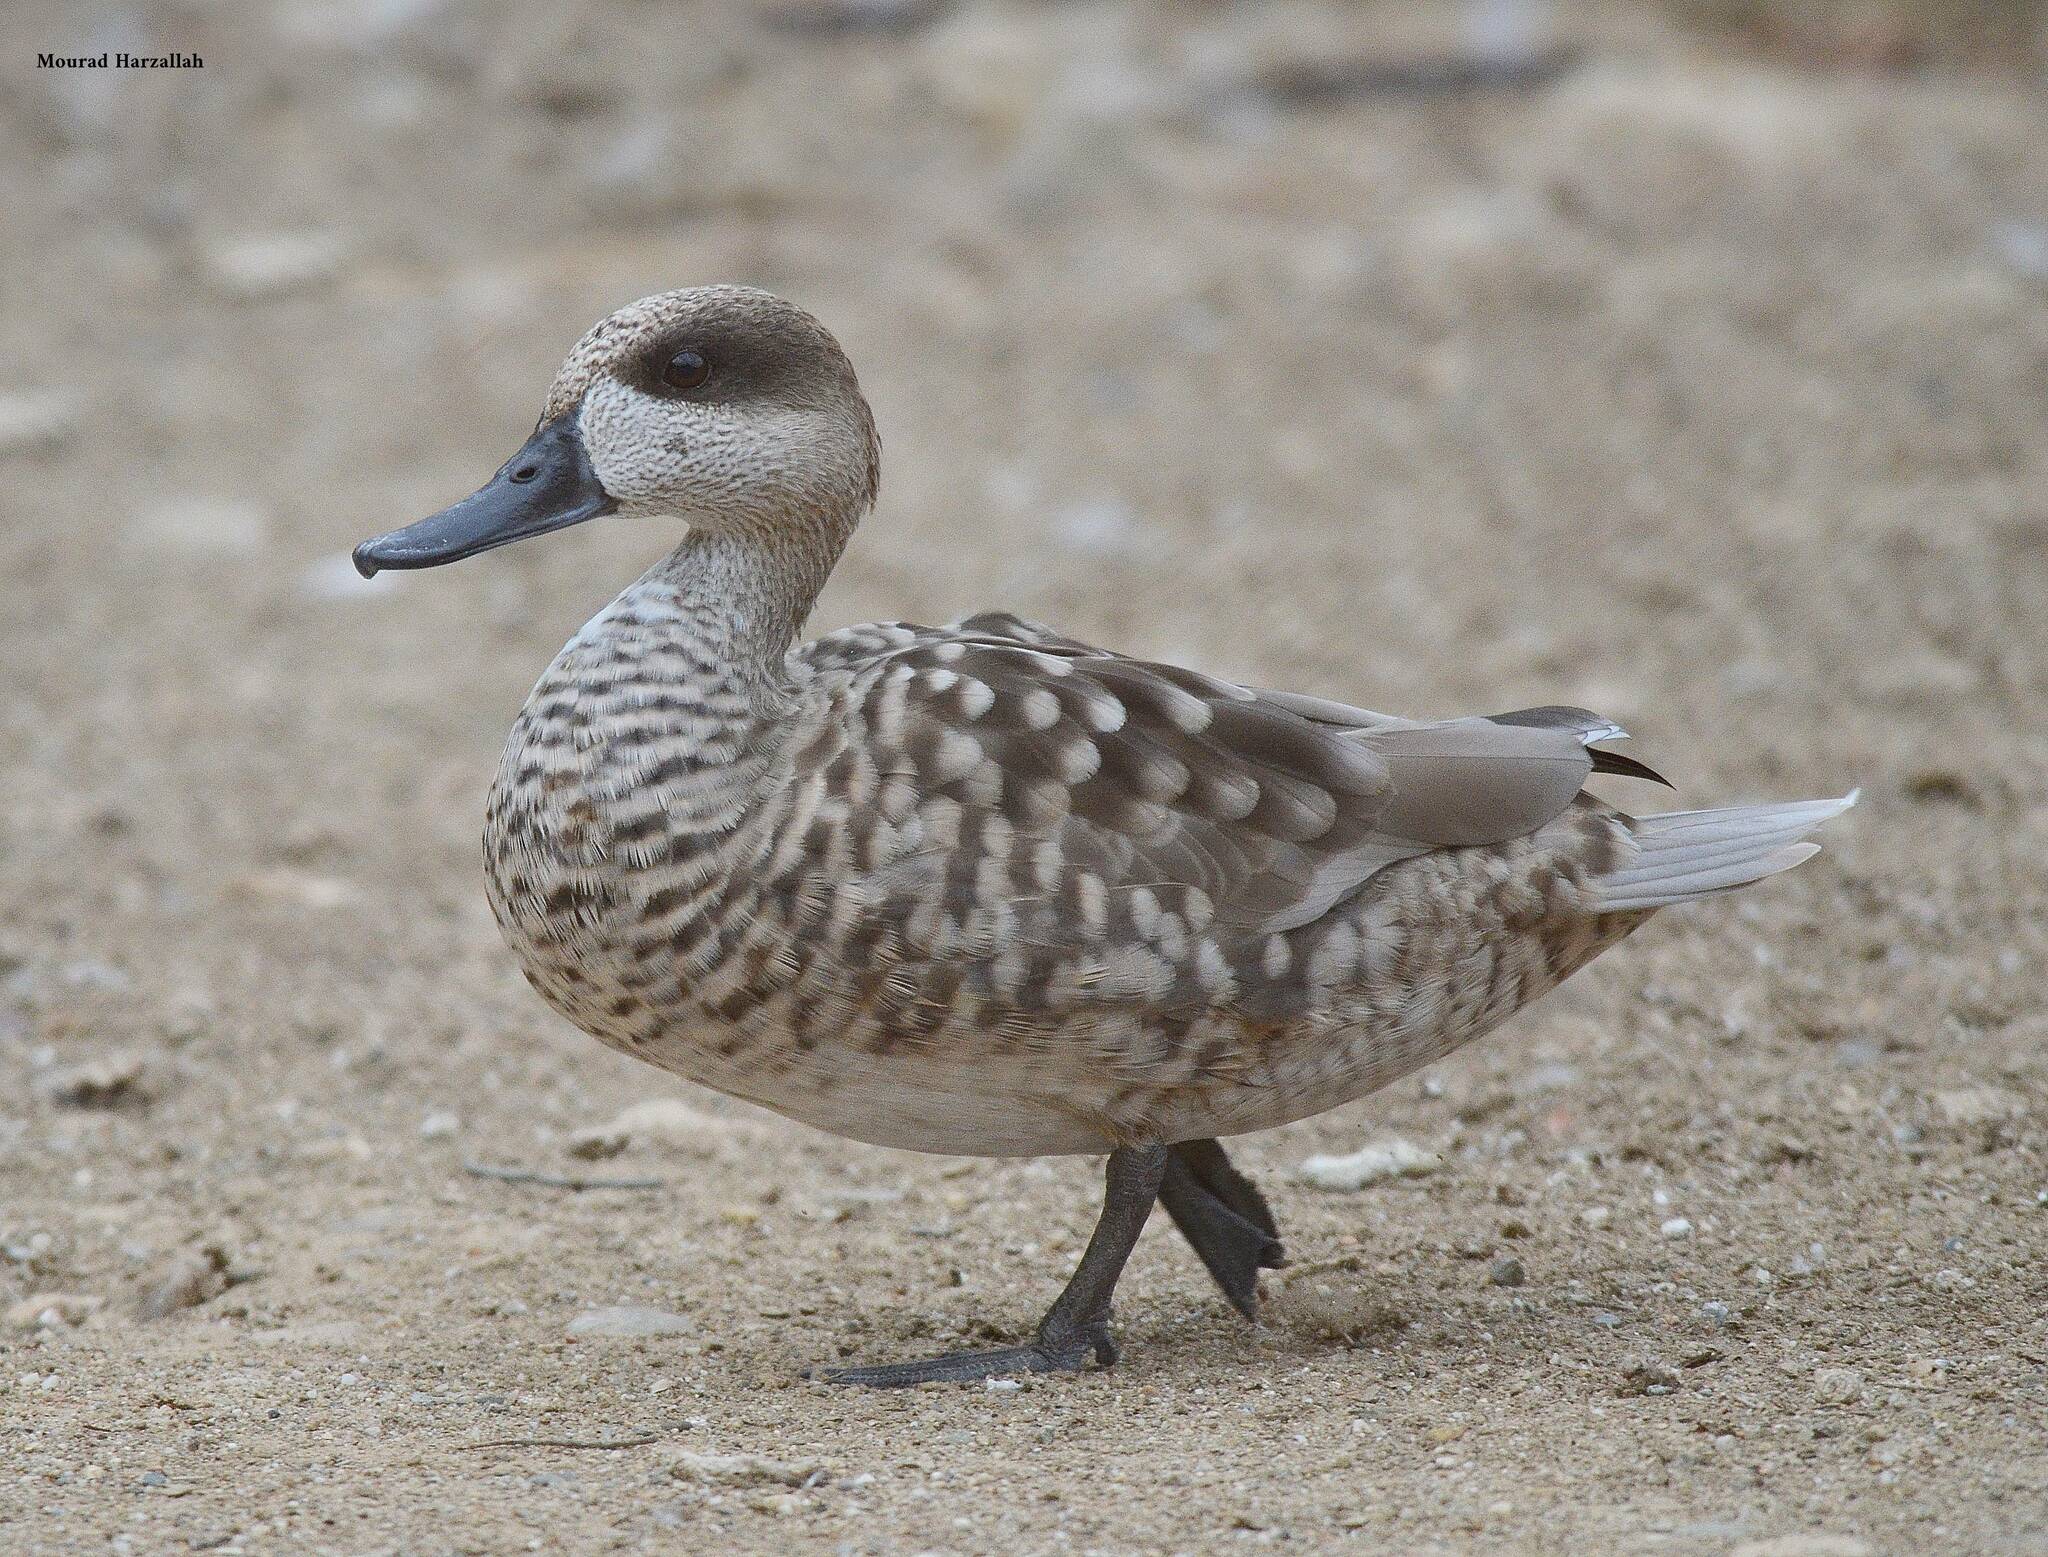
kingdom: Animalia
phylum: Chordata
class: Aves
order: Anseriformes
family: Anatidae
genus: Marmaronetta
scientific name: Marmaronetta angustirostris
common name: Marbled duck
